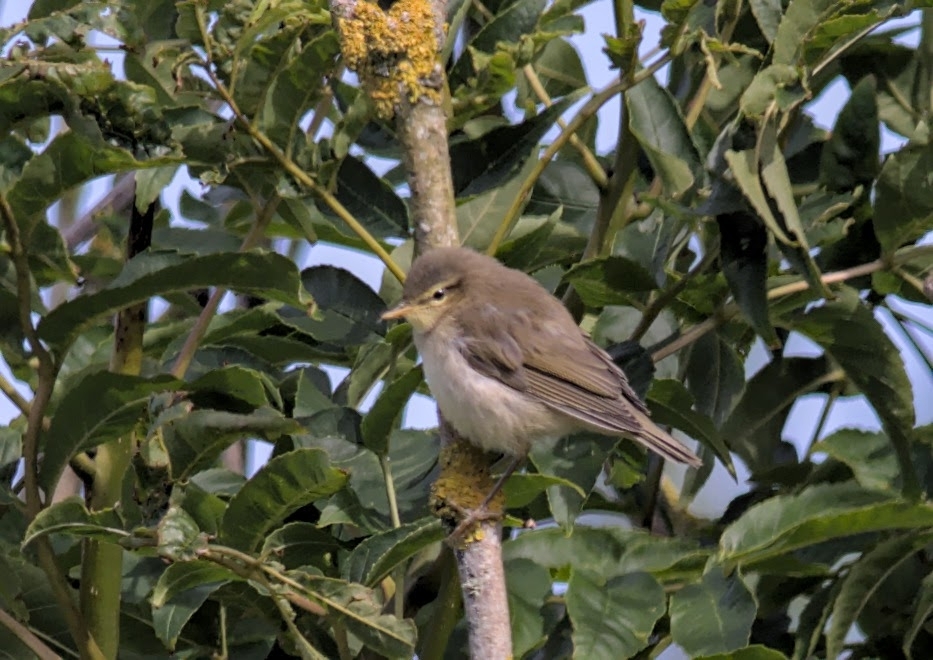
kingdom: Animalia
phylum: Chordata
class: Aves
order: Passeriformes
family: Phylloscopidae
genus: Phylloscopus
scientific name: Phylloscopus trochilus
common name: Willow warbler
